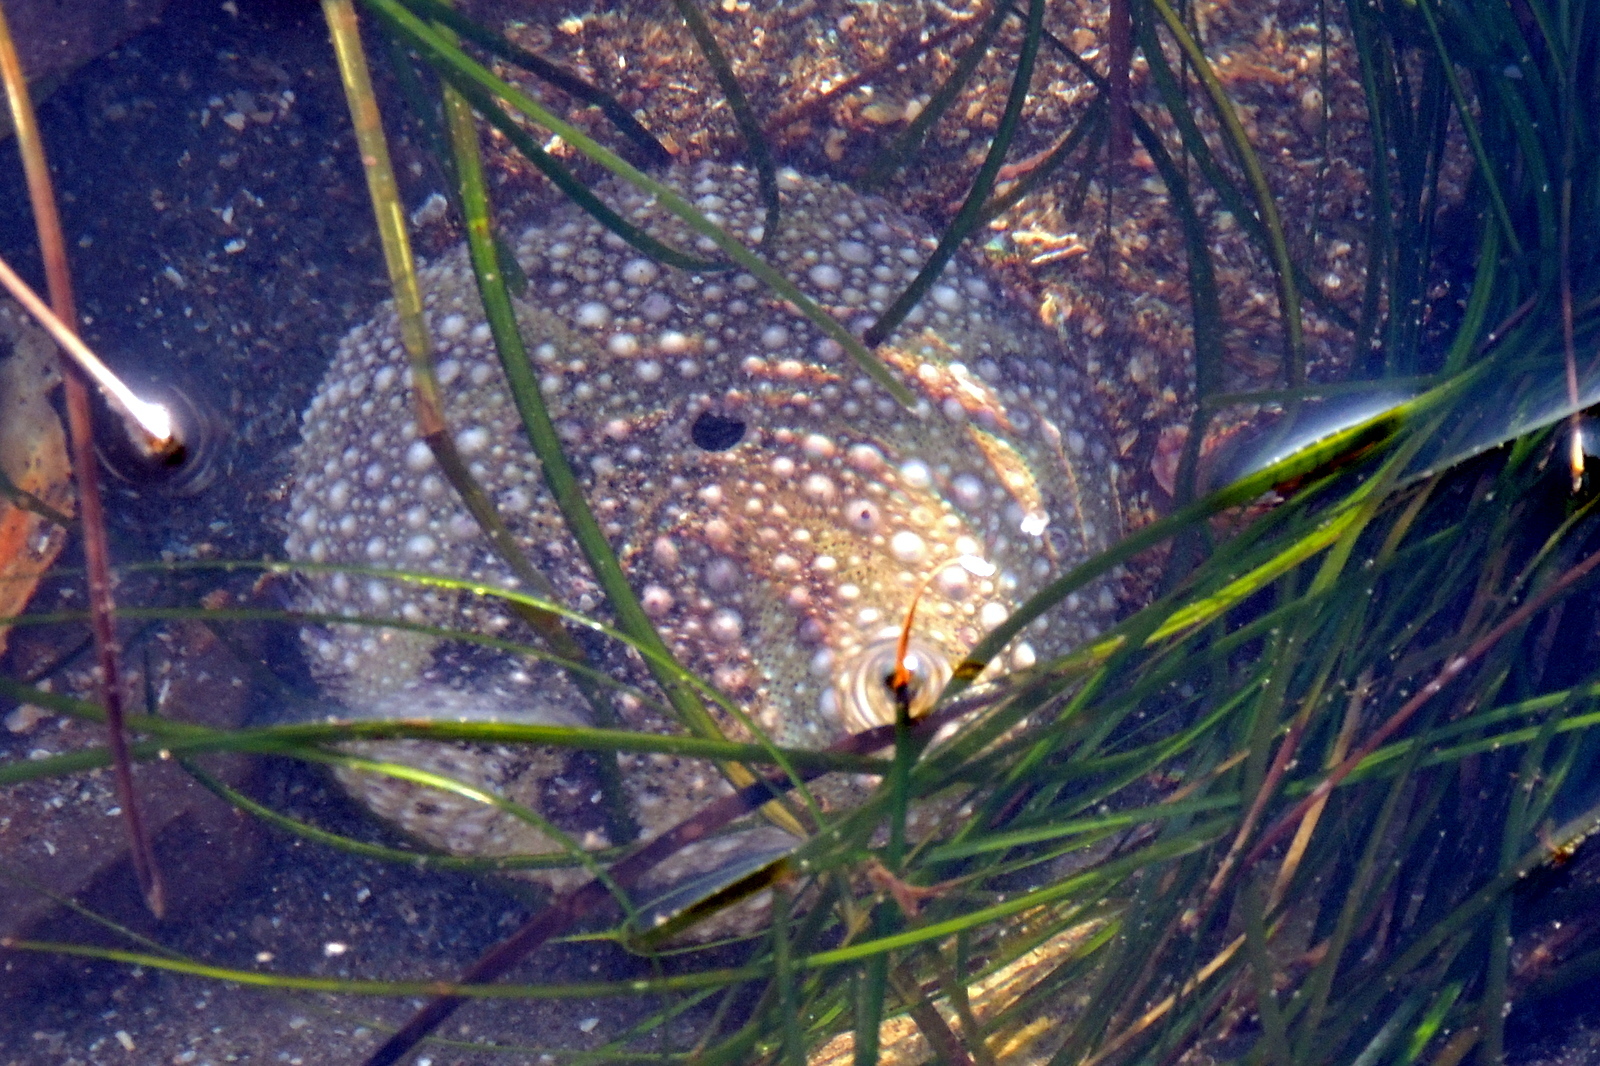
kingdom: Animalia
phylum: Echinodermata
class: Echinoidea
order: Camarodonta
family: Strongylocentrotidae
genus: Strongylocentrotus
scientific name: Strongylocentrotus purpuratus
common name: Purple sea urchin
